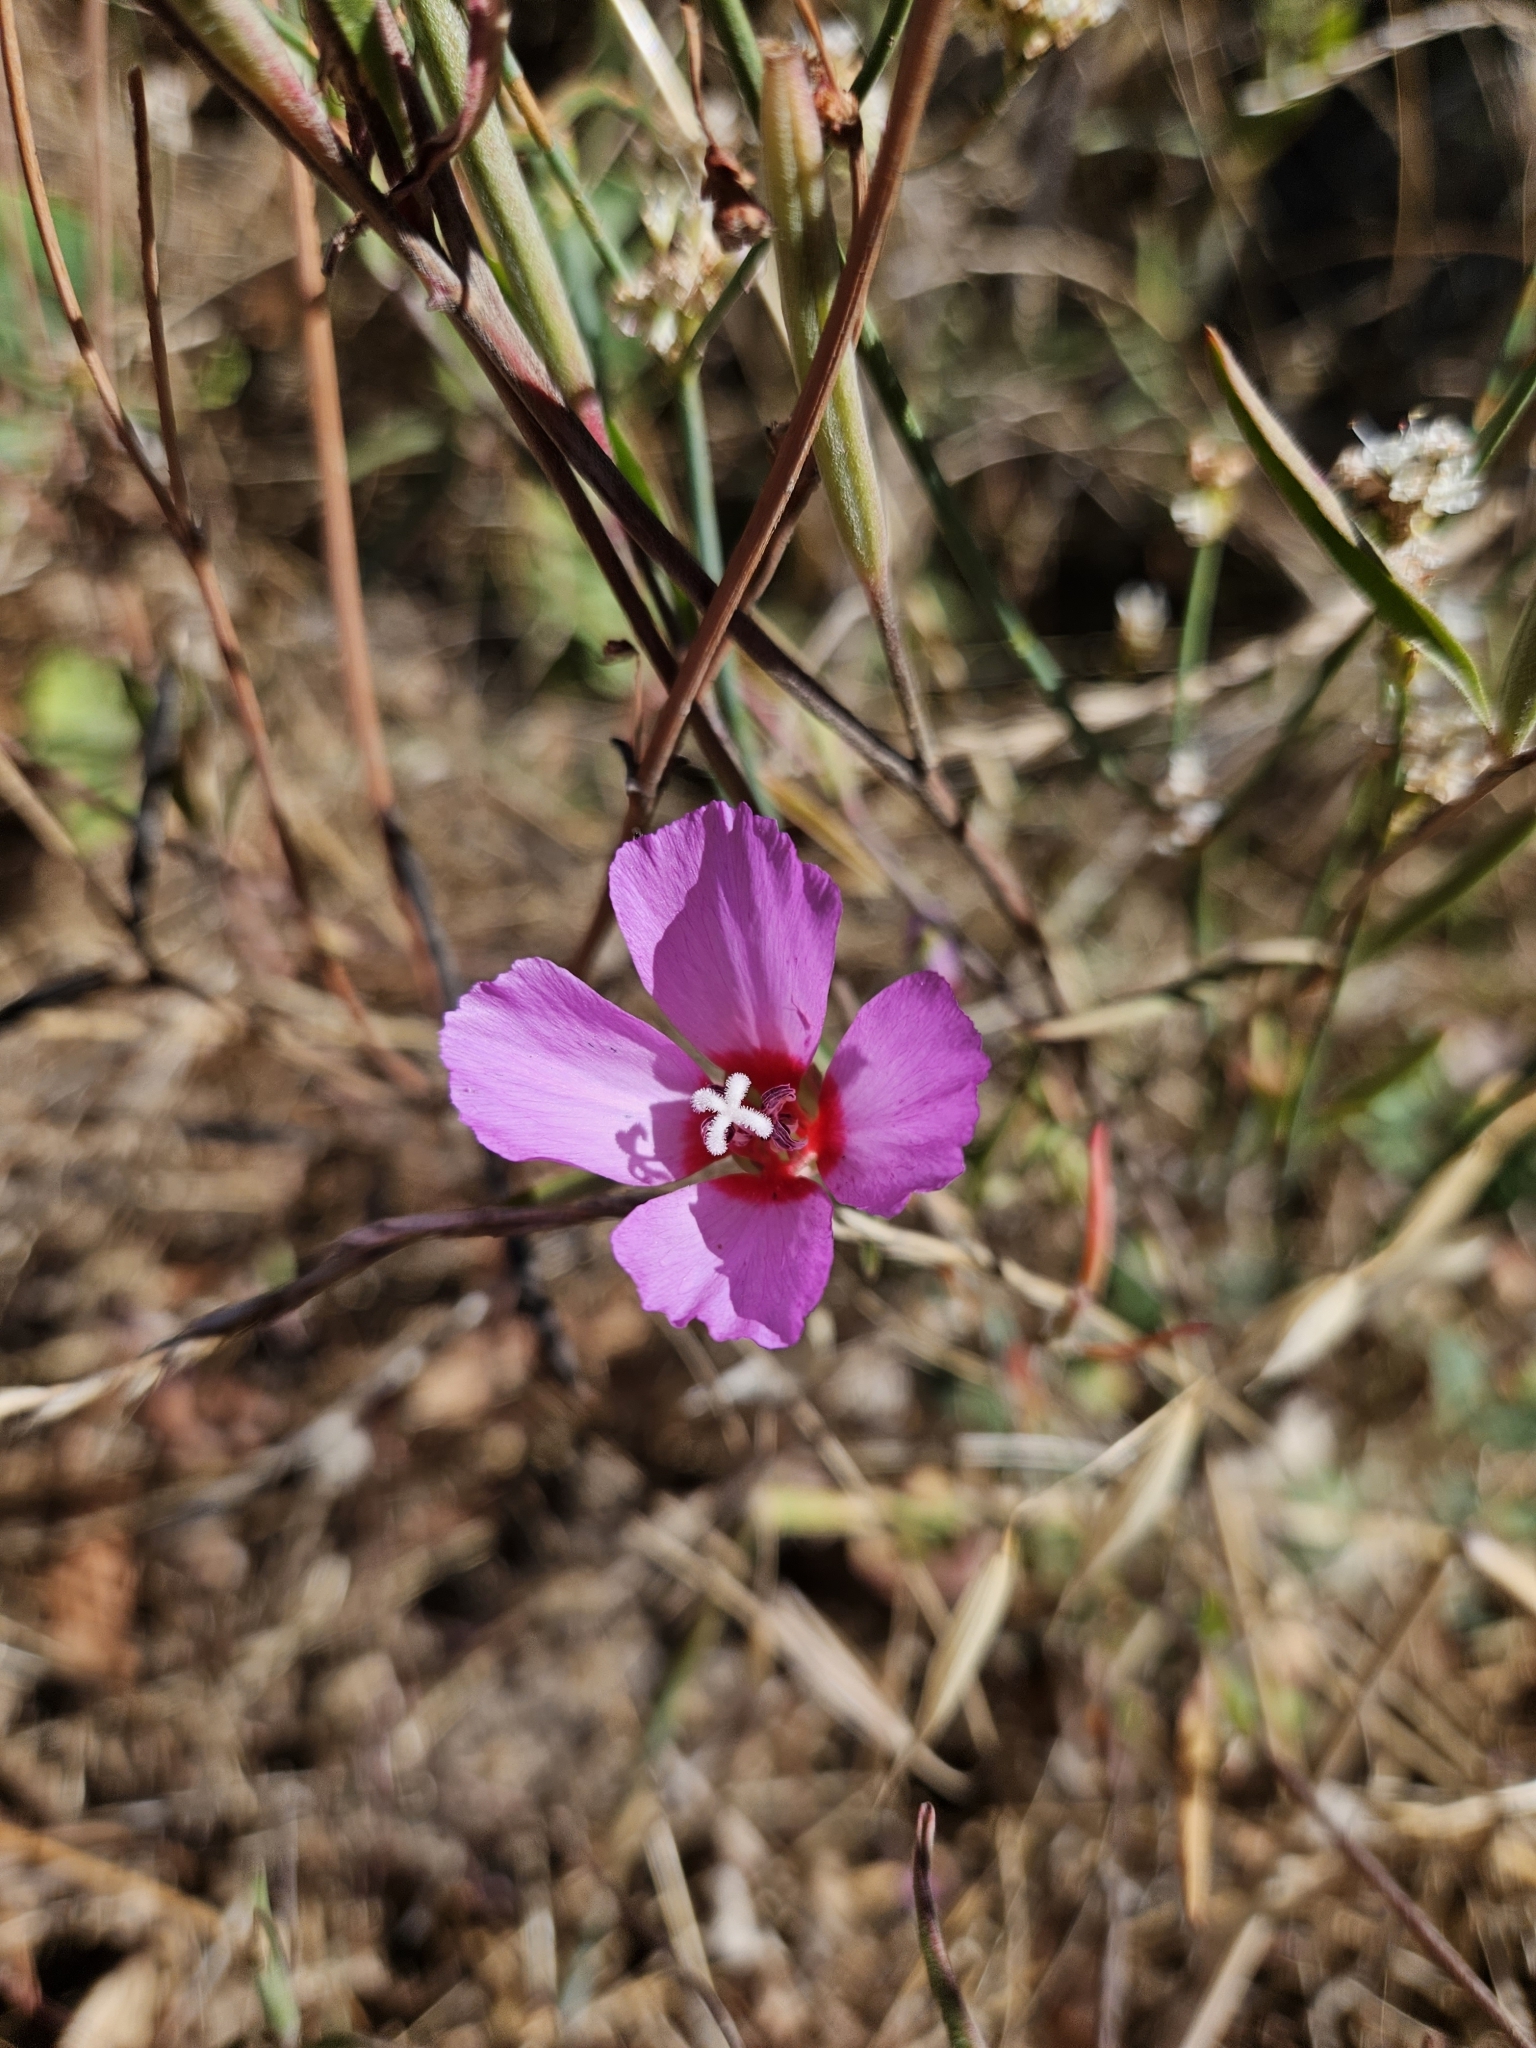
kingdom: Plantae
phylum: Tracheophyta
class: Magnoliopsida
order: Myrtales
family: Onagraceae
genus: Clarkia
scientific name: Clarkia rubicunda
